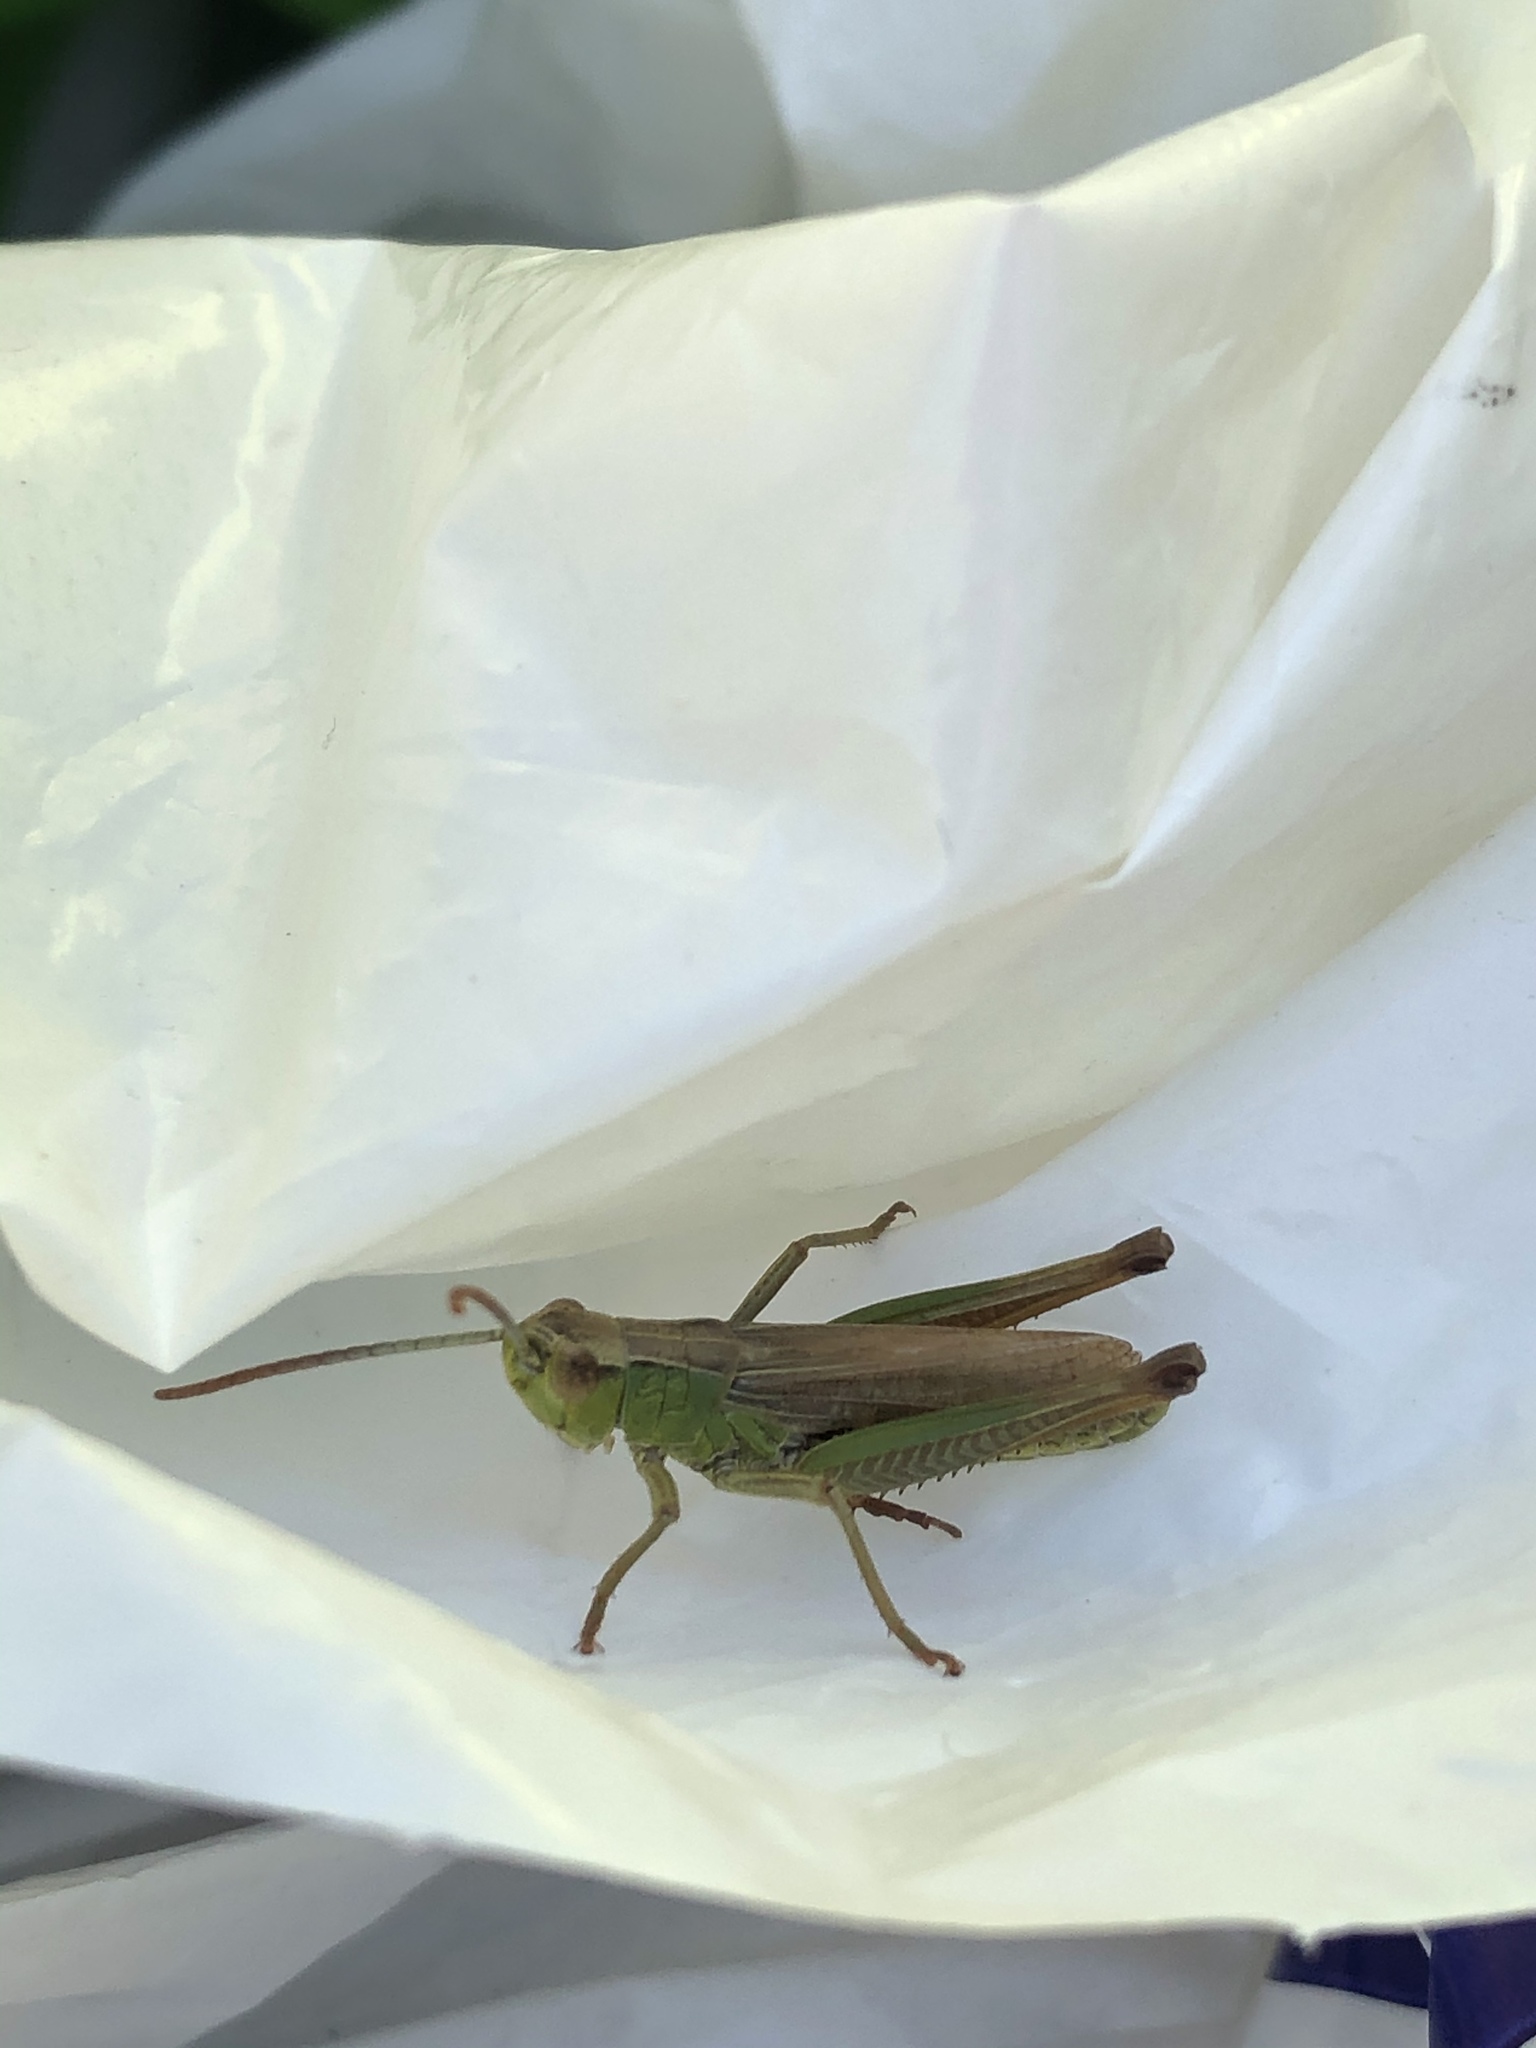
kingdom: Animalia
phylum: Arthropoda
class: Insecta
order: Orthoptera
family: Acrididae
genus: Pseudochorthippus
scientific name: Pseudochorthippus parallelus
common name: Meadow grasshopper
